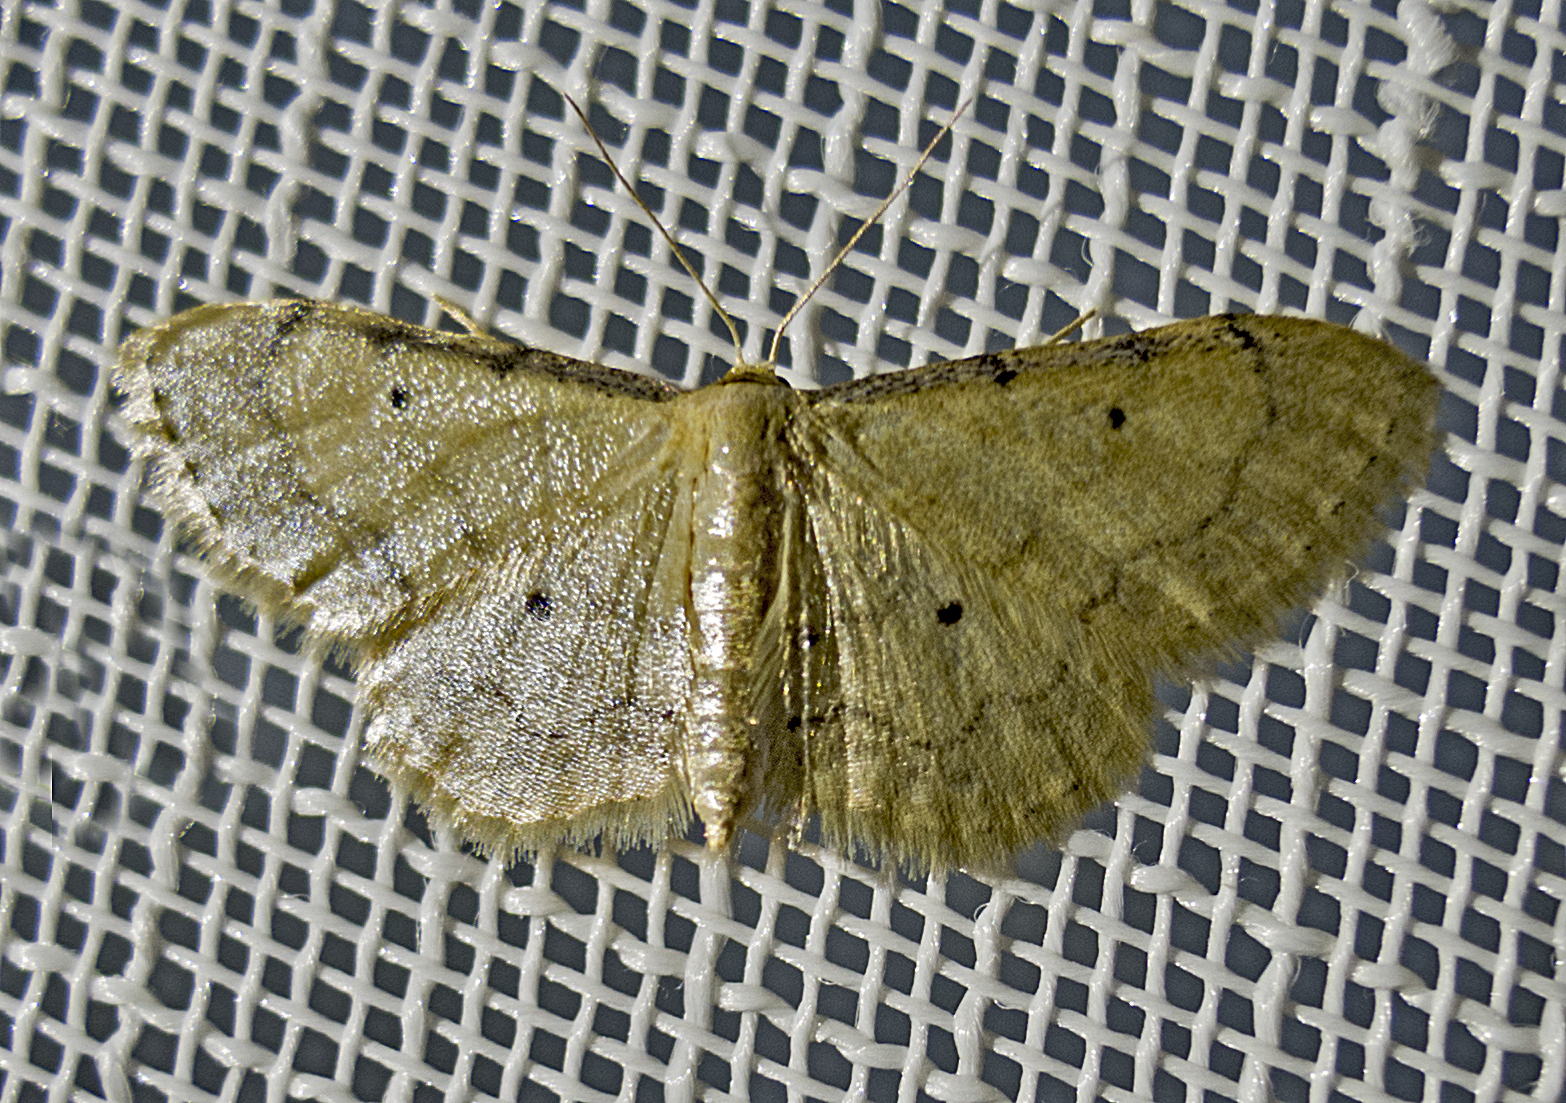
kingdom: Animalia
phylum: Arthropoda
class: Insecta
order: Lepidoptera
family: Geometridae
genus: Idaea
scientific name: Idaea politaria
